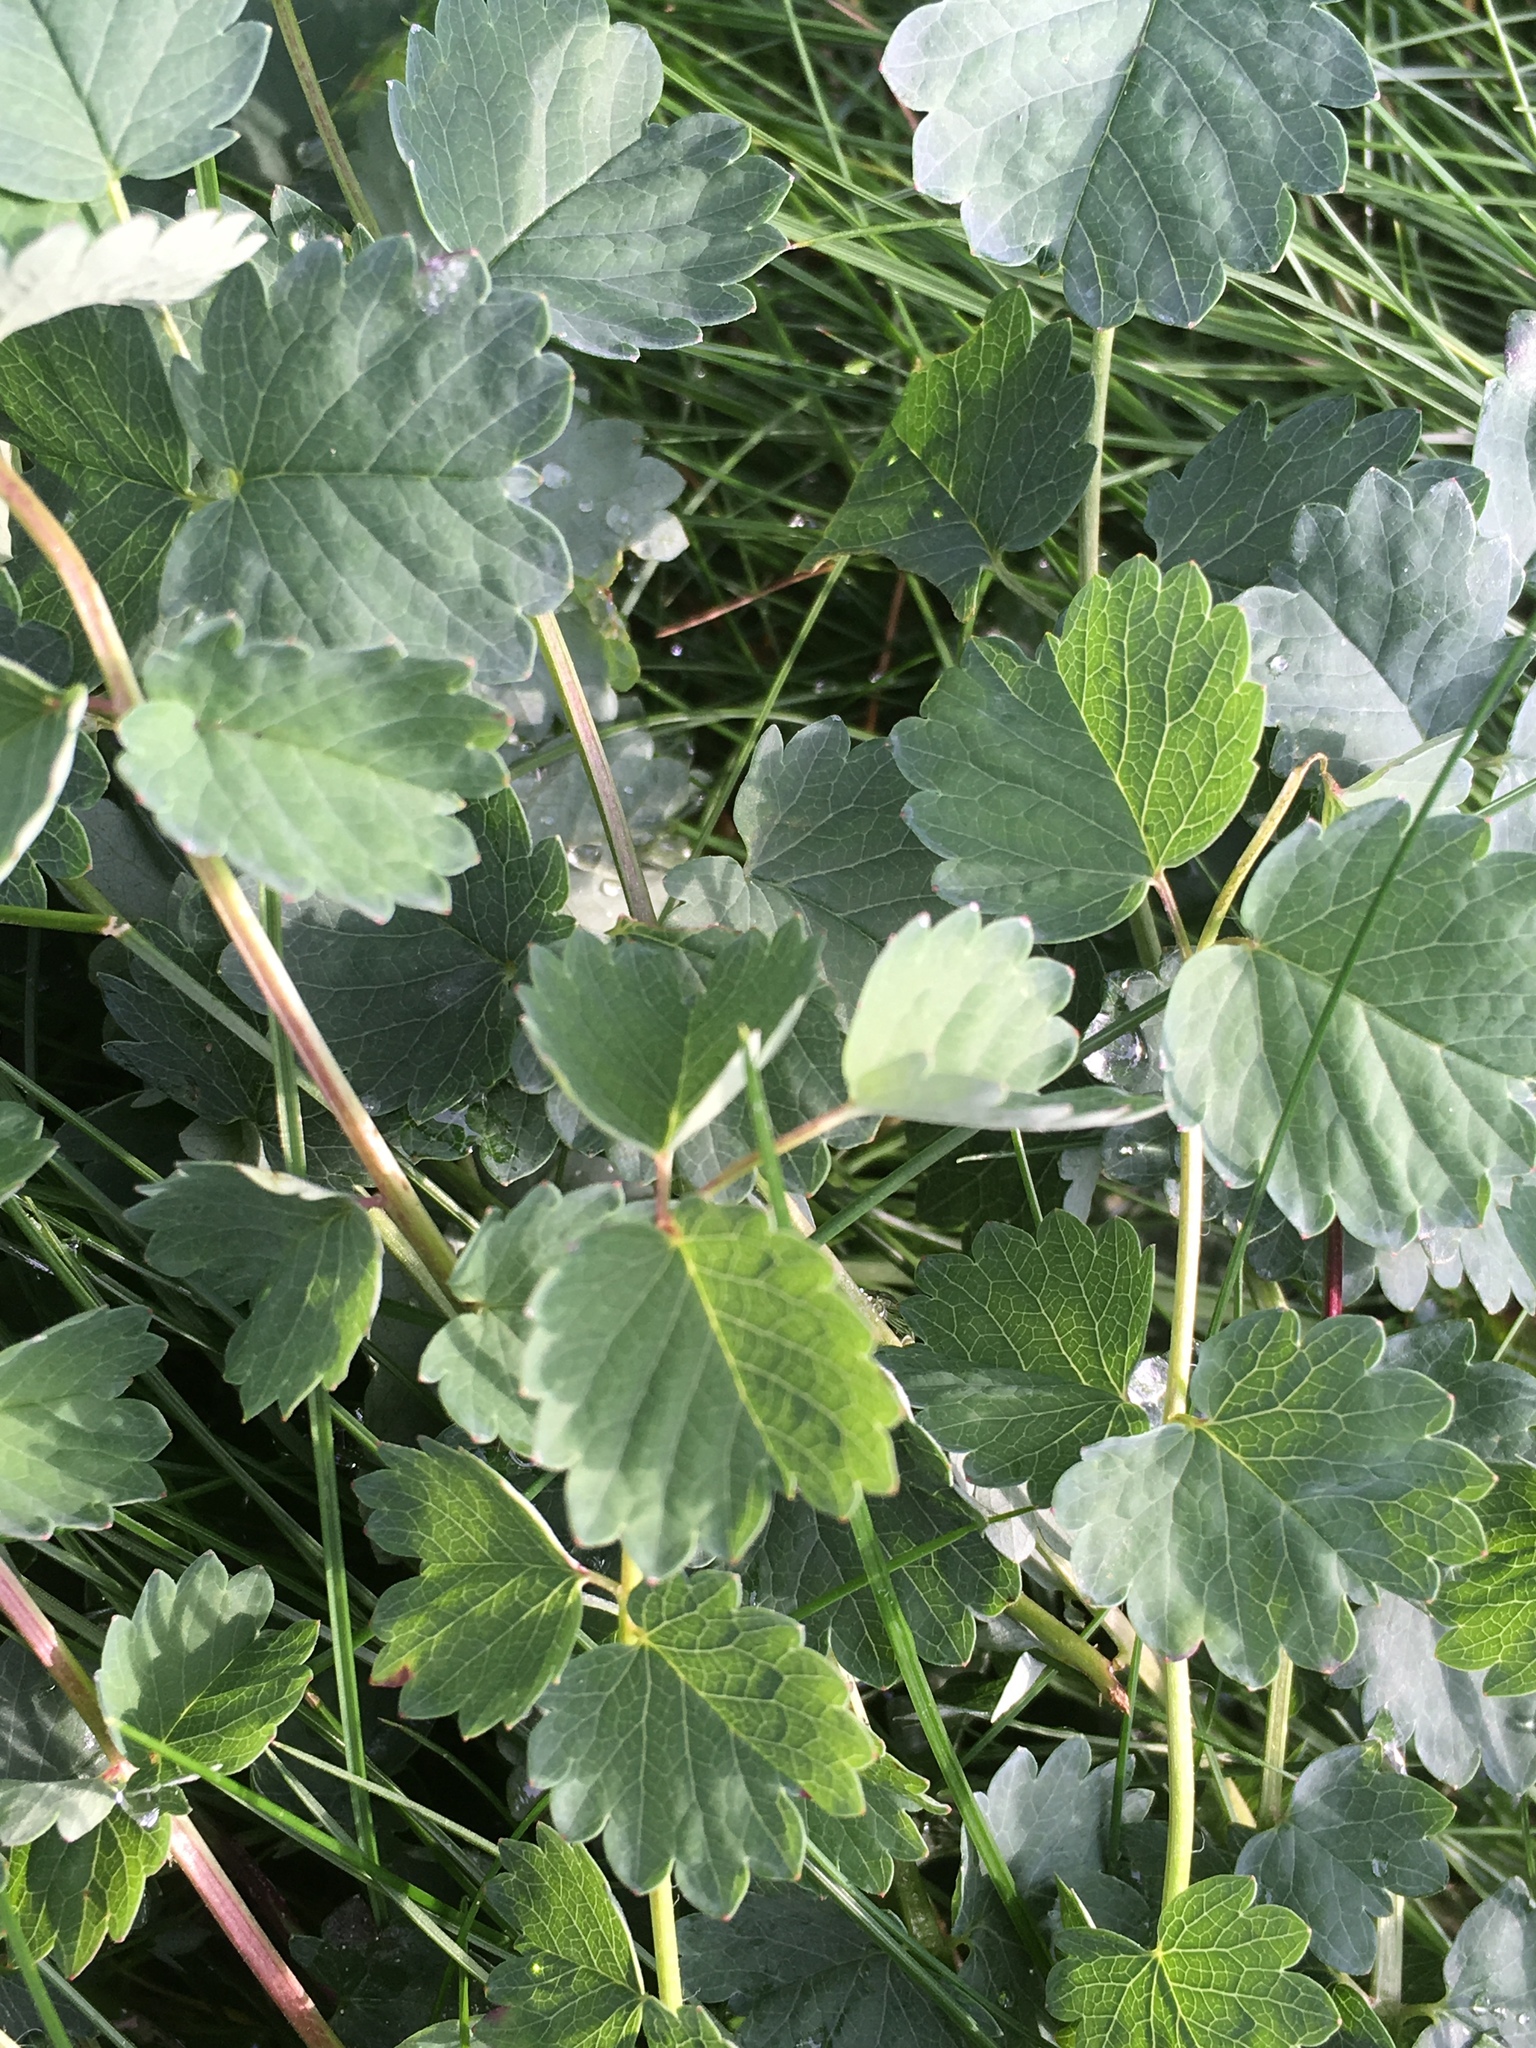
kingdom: Plantae
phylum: Tracheophyta
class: Magnoliopsida
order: Rosales
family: Rosaceae
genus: Poterium
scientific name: Poterium sanguisorba
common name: Salad burnet
